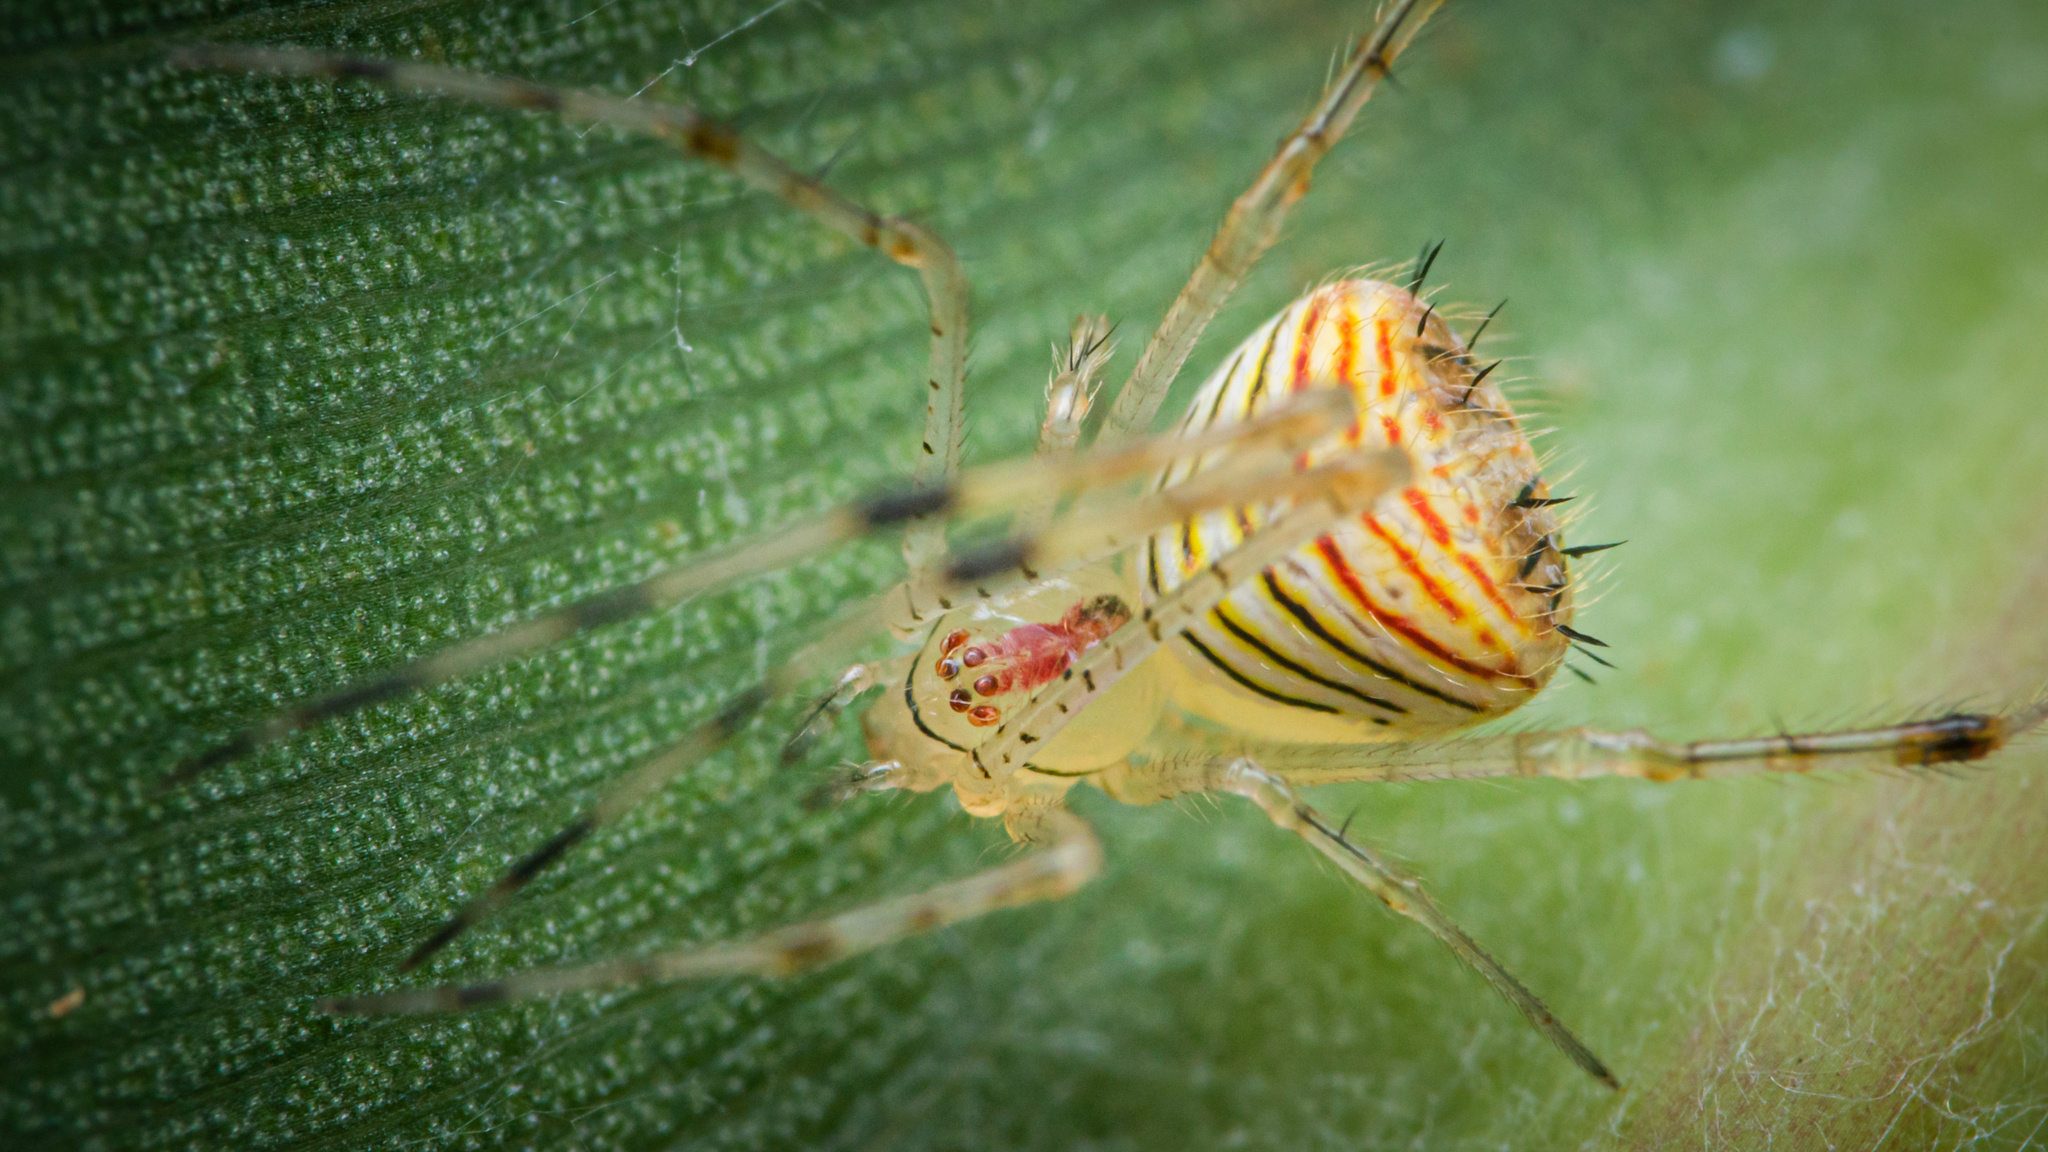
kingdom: Animalia
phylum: Arthropoda
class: Arachnida
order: Araneae
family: Theridiidae
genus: Chrysso
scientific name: Chrysso tiboli
